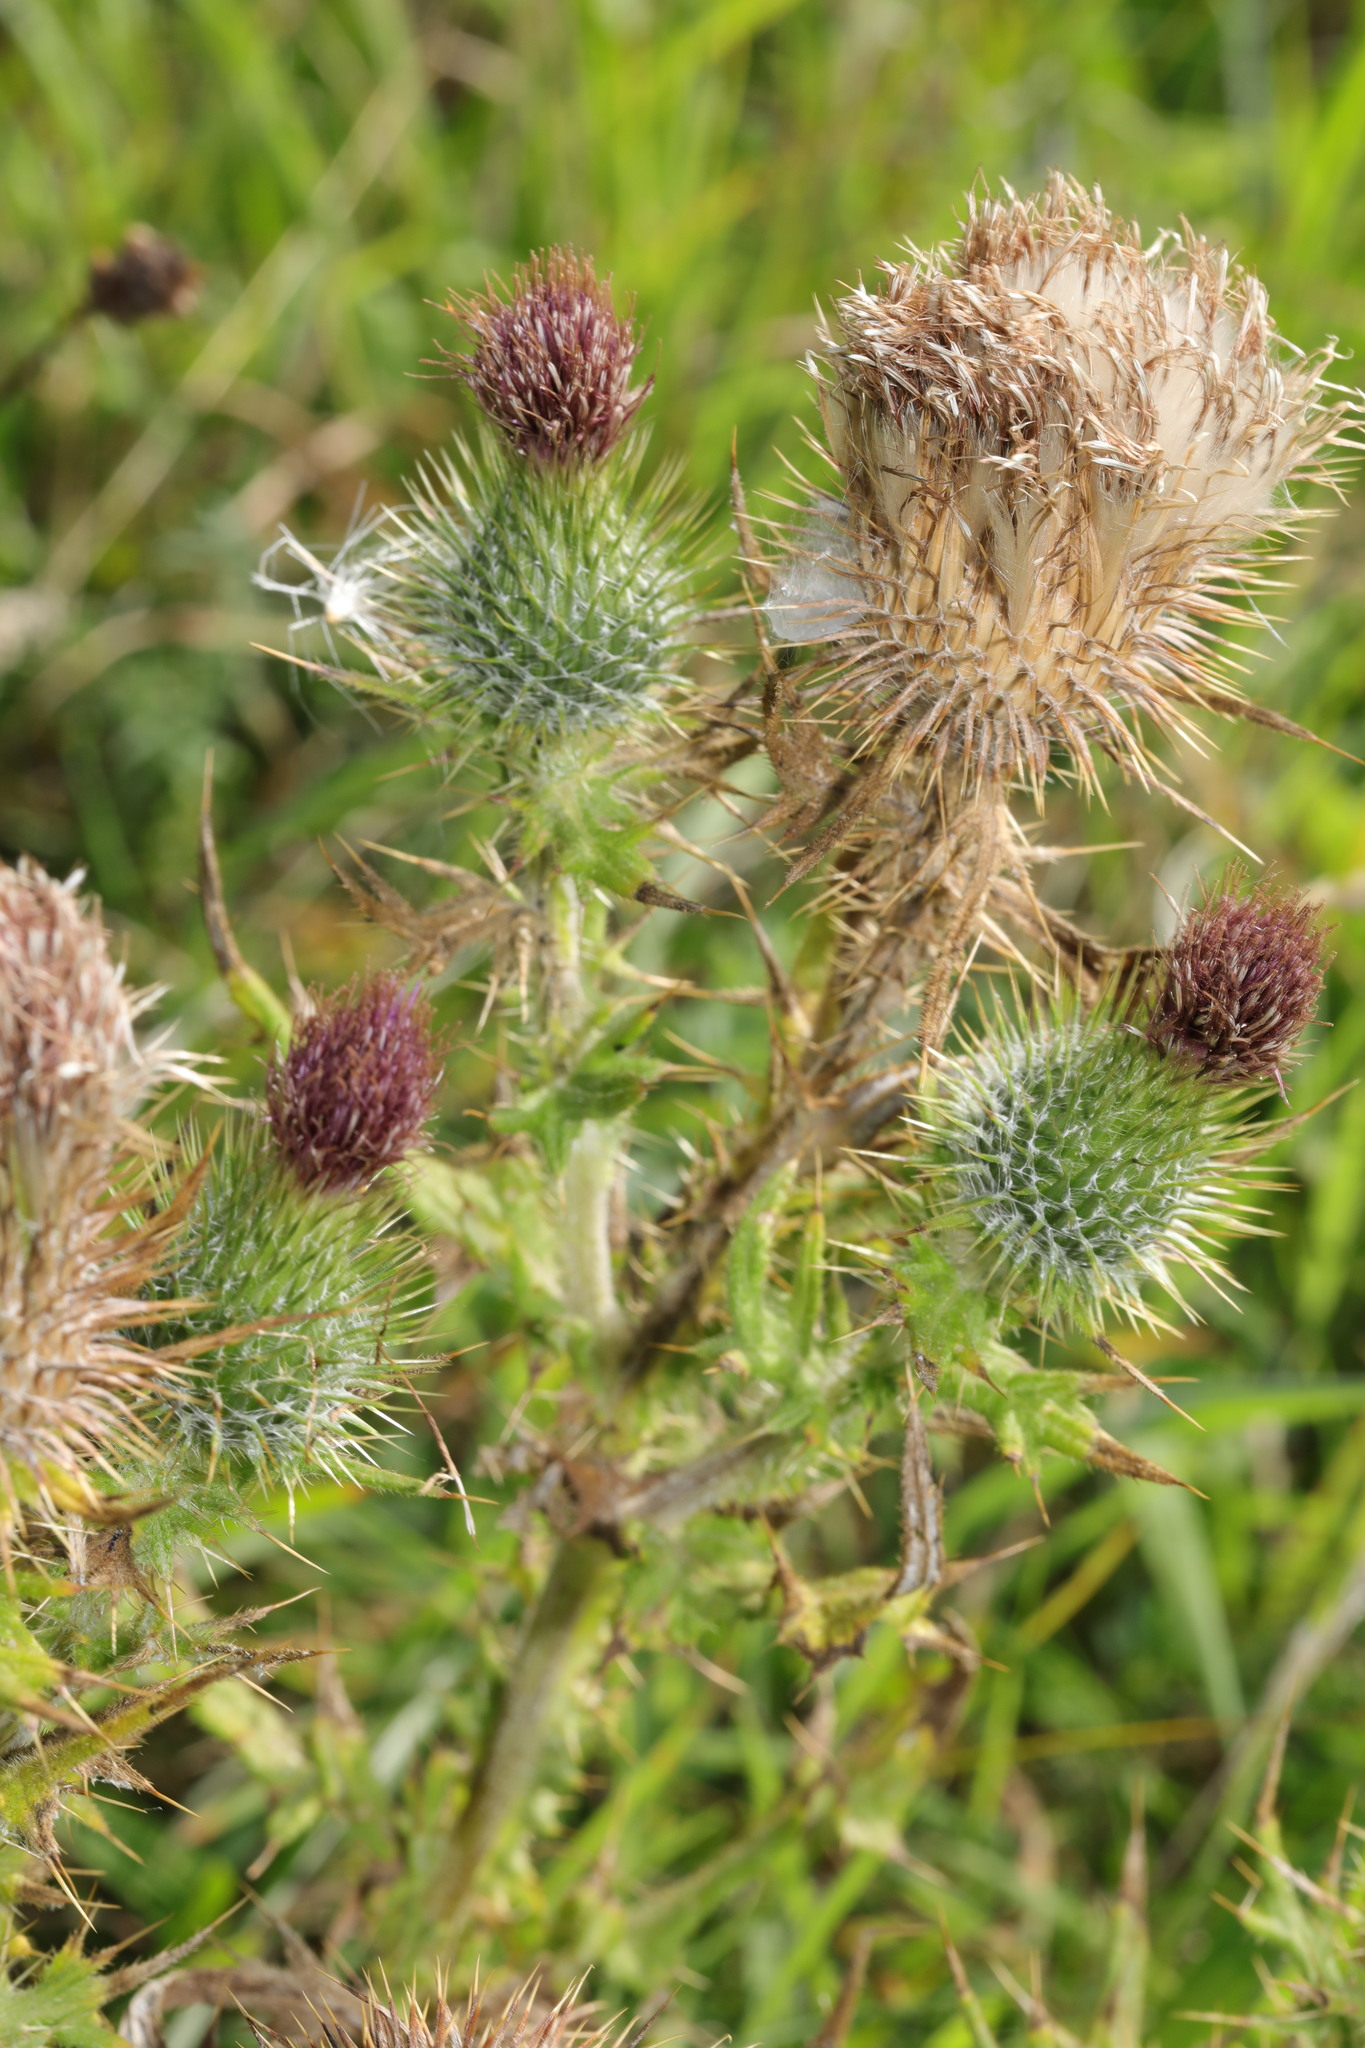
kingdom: Plantae
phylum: Tracheophyta
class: Magnoliopsida
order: Asterales
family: Asteraceae
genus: Cirsium
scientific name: Cirsium vulgare
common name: Bull thistle
